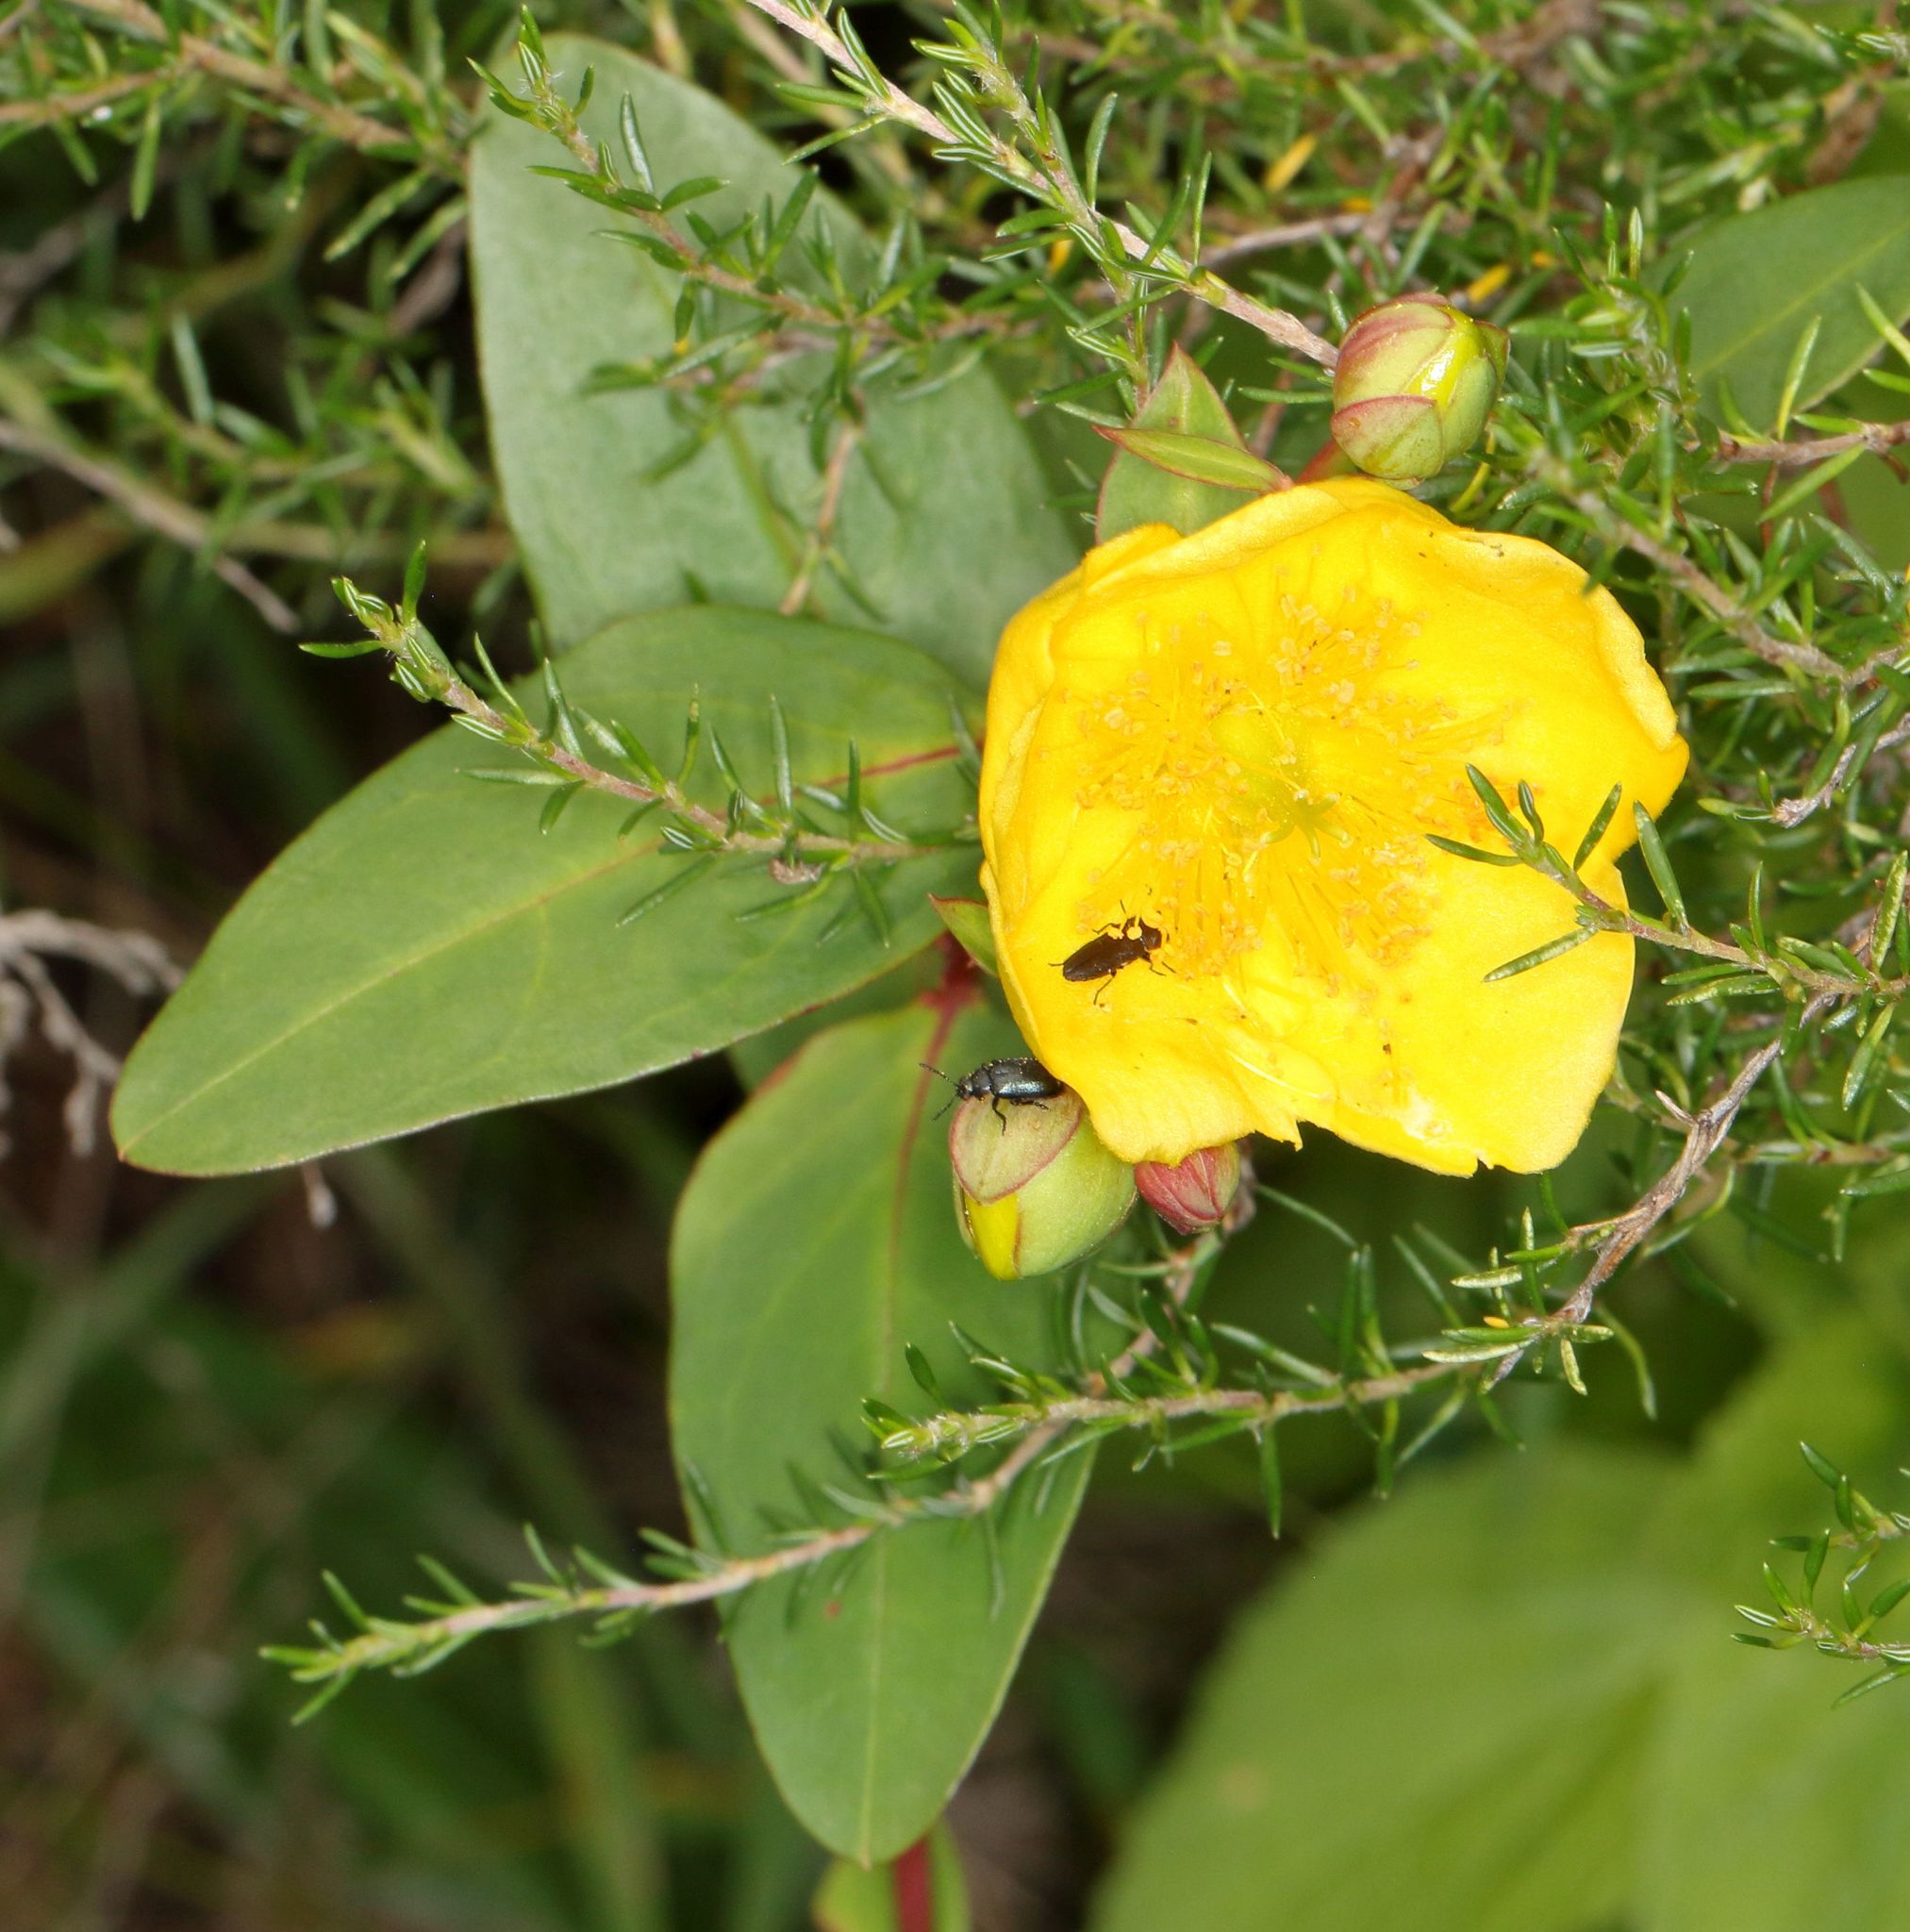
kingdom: Plantae
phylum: Tracheophyta
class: Magnoliopsida
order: Malpighiales
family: Hypericaceae
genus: Hypericum
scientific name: Hypericum forrestii
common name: Forrest's tutsan
